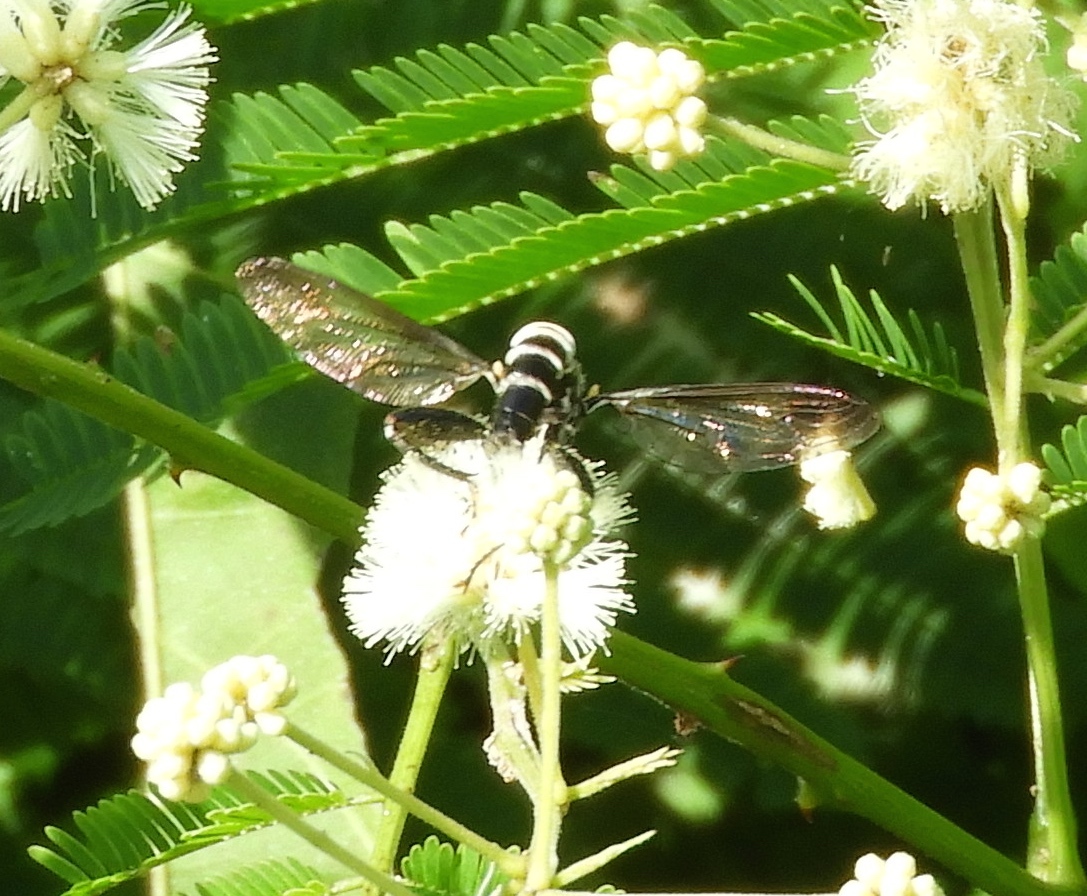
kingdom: Animalia
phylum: Arthropoda
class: Insecta
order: Diptera
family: Mydidae
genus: Mydas
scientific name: Mydas
